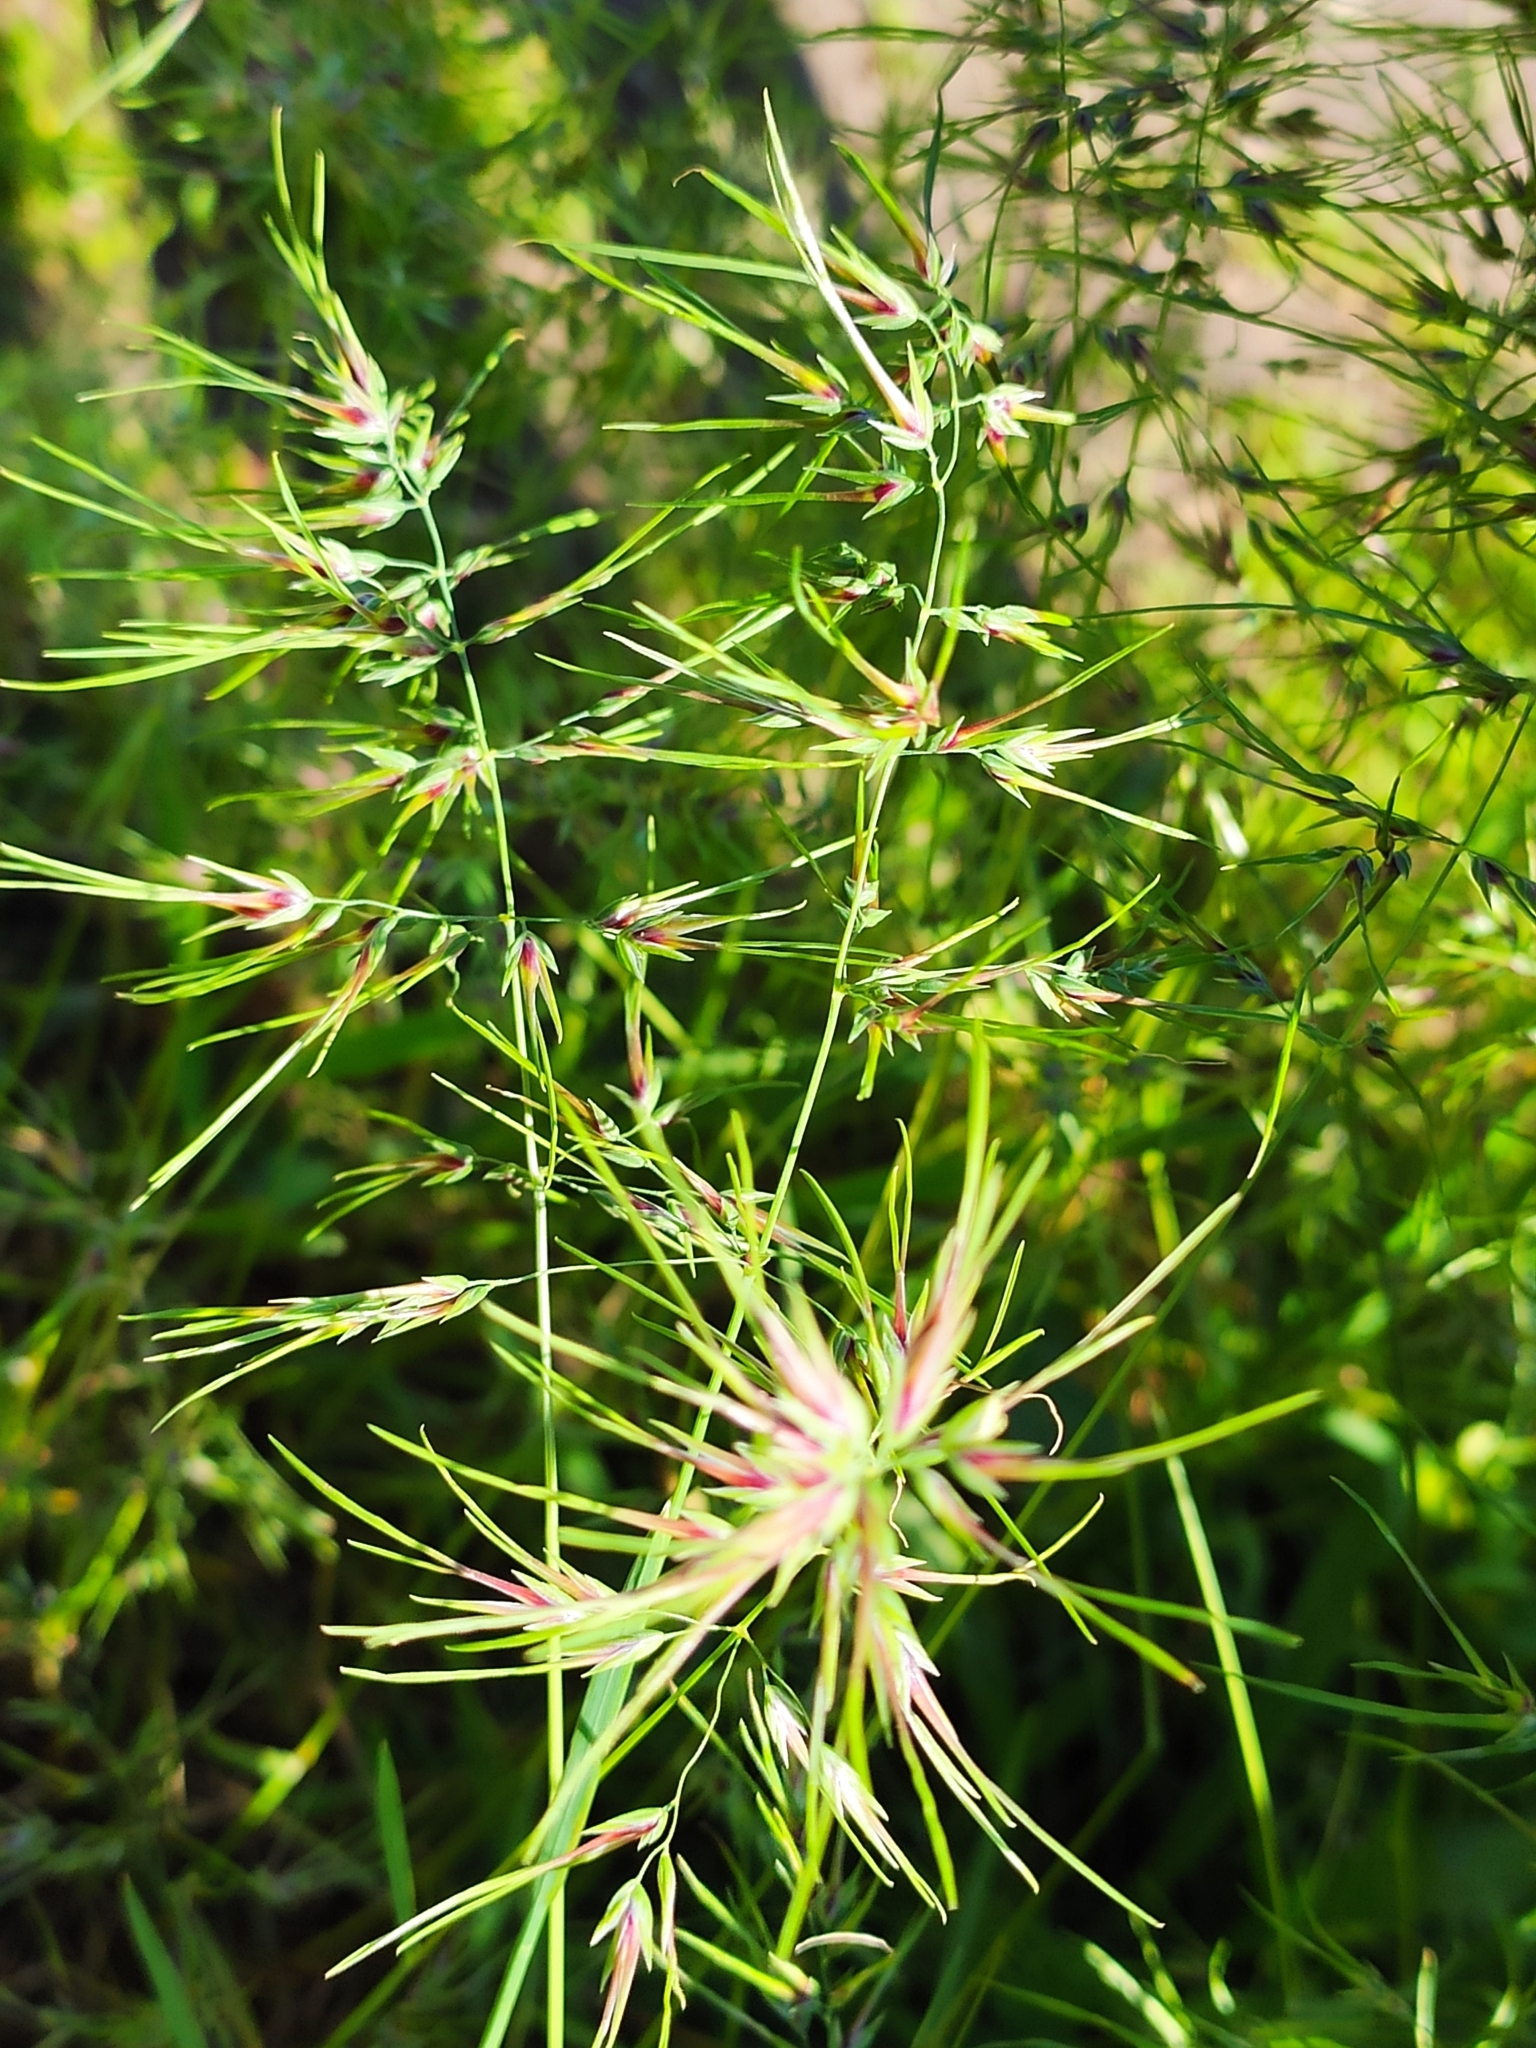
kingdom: Plantae
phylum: Tracheophyta
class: Liliopsida
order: Poales
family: Poaceae
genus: Poa
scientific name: Poa bulbosa
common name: Bulbous bluegrass
